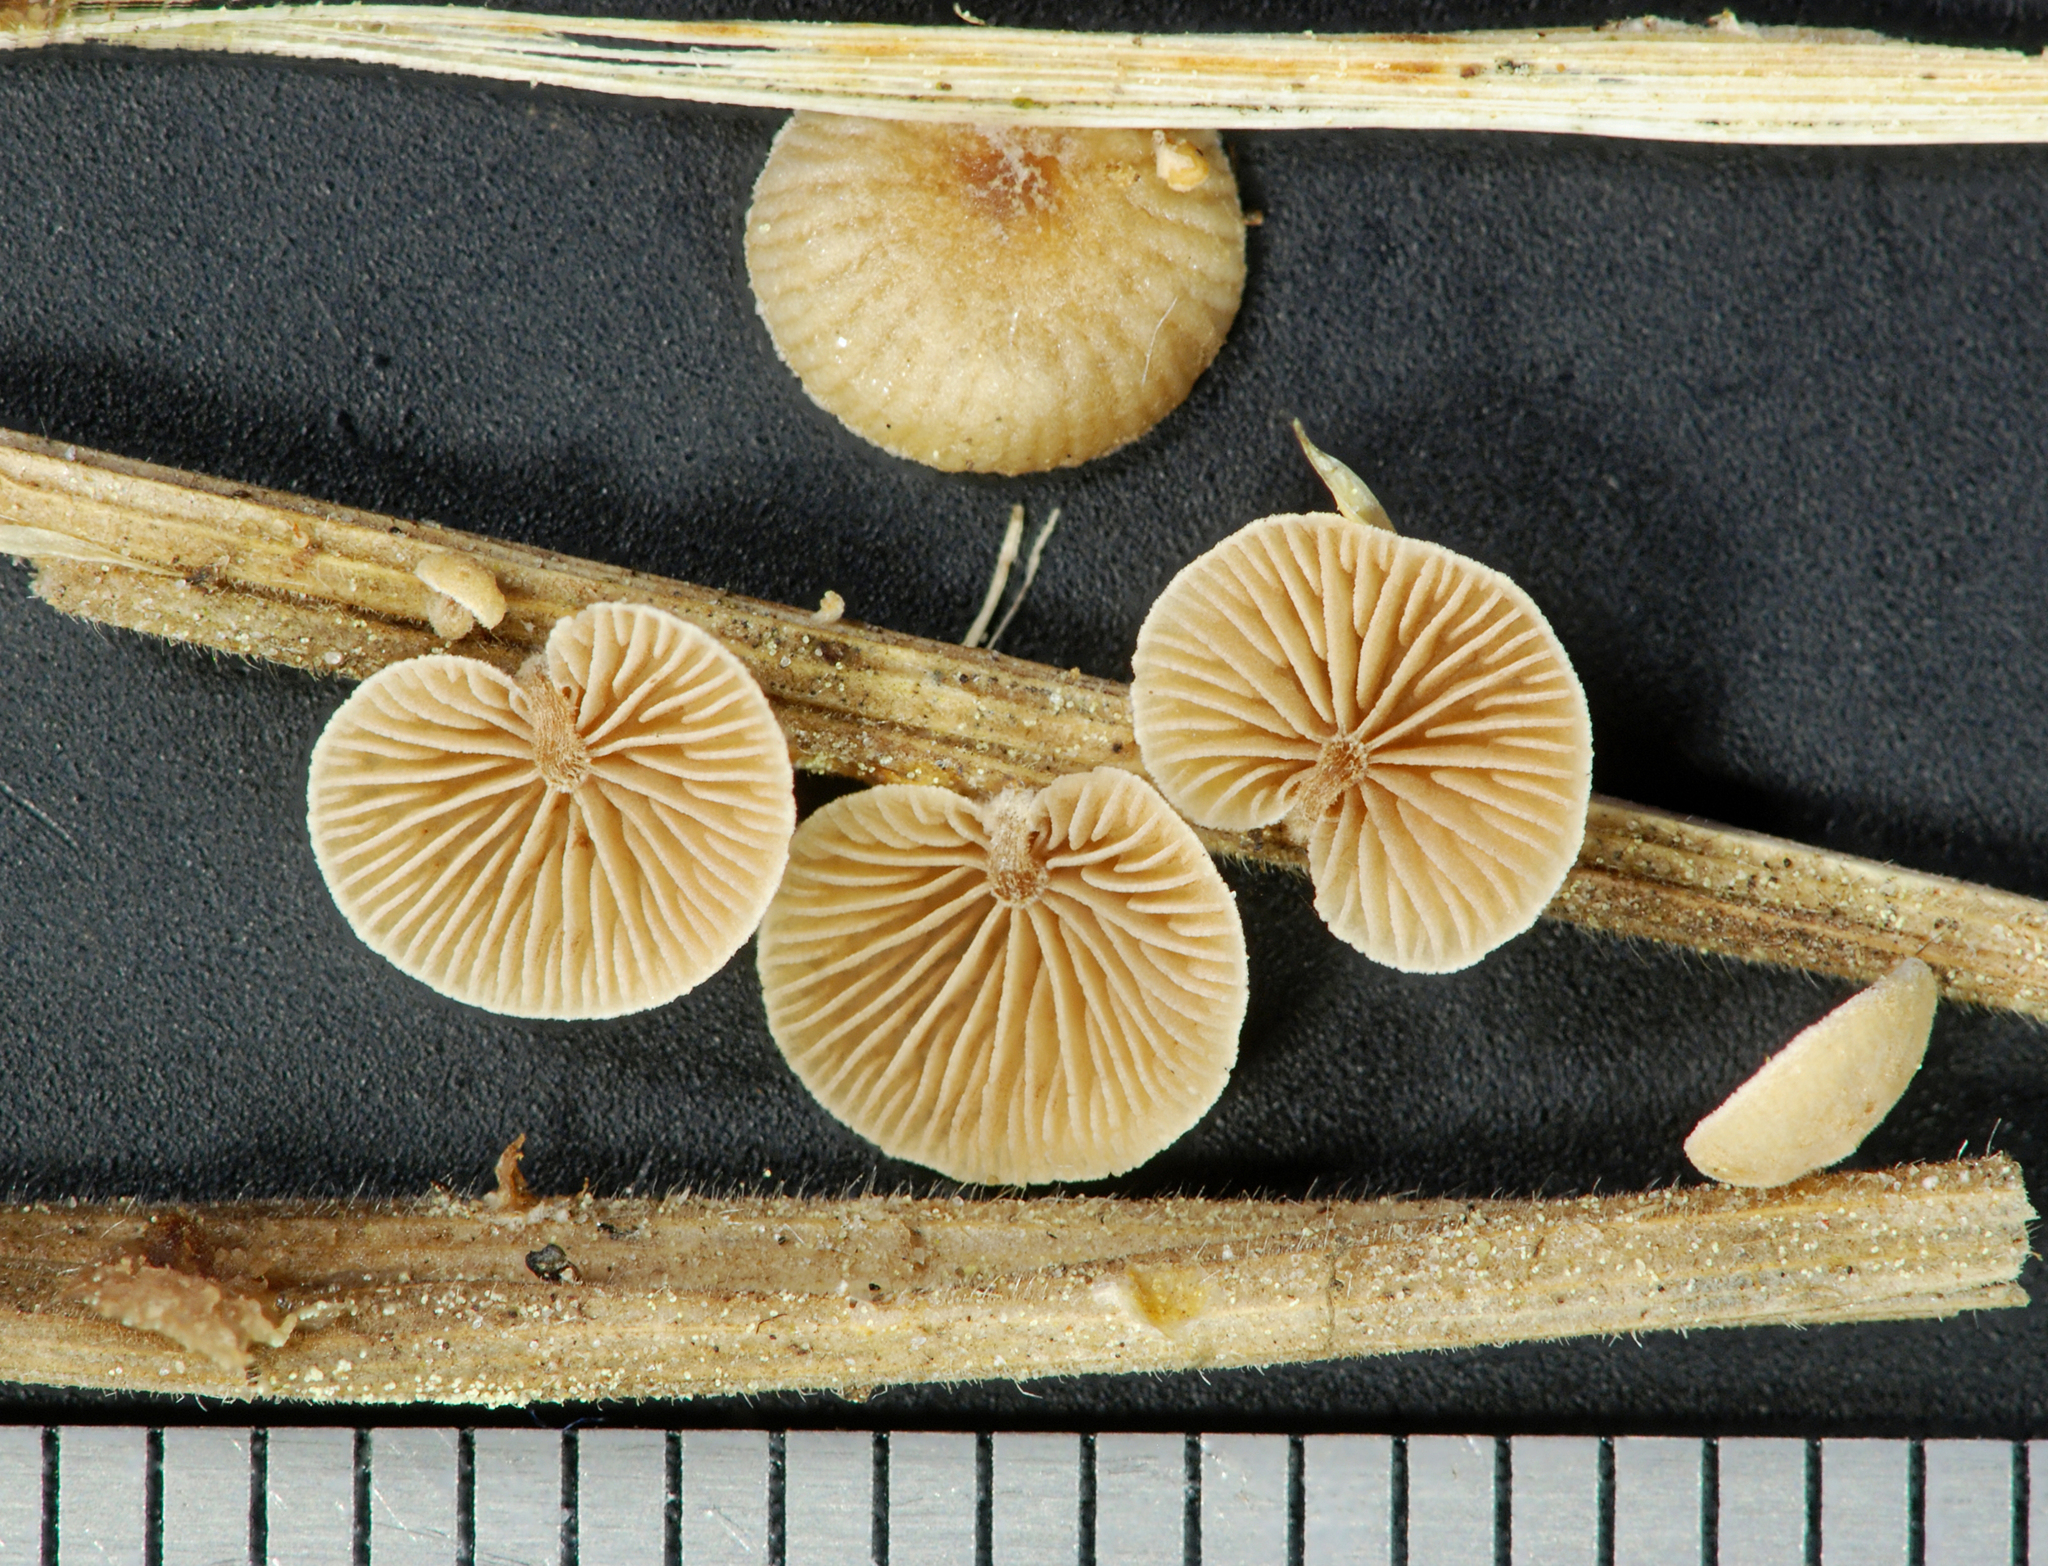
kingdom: Fungi
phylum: Basidiomycota
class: Agaricomycetes
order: Agaricales
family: Strophariaceae
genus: Deconica
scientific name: Deconica phillipsii
